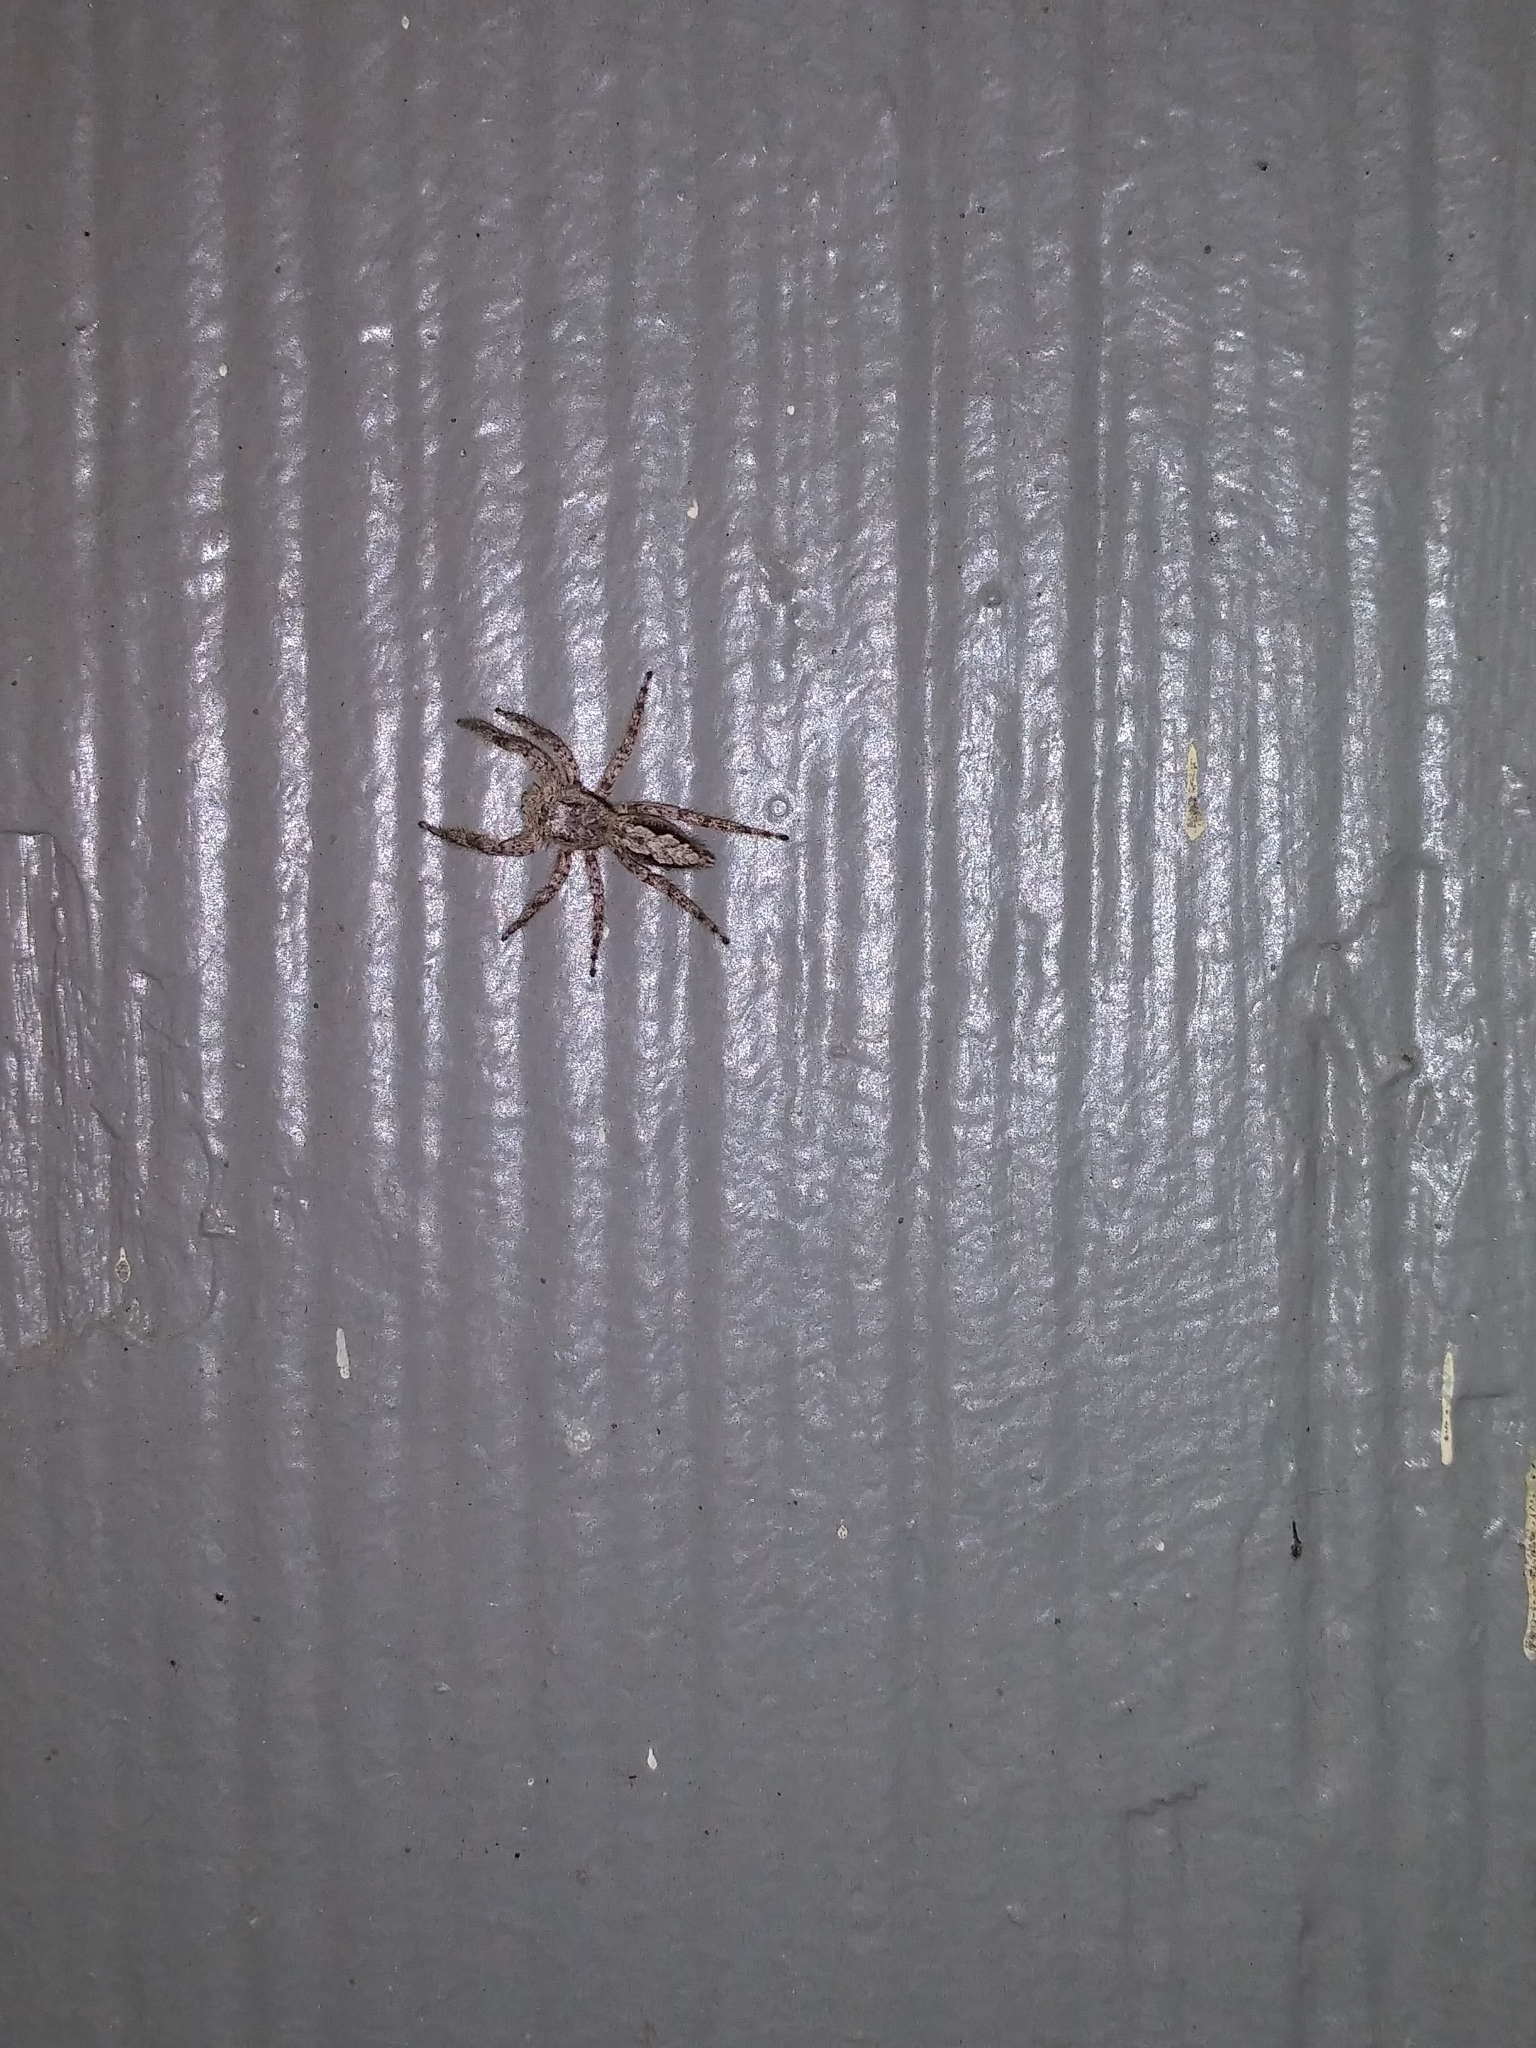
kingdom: Animalia
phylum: Arthropoda
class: Arachnida
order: Araneae
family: Salticidae
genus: Platycryptus
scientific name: Platycryptus undatus
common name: Tan jumping spider
